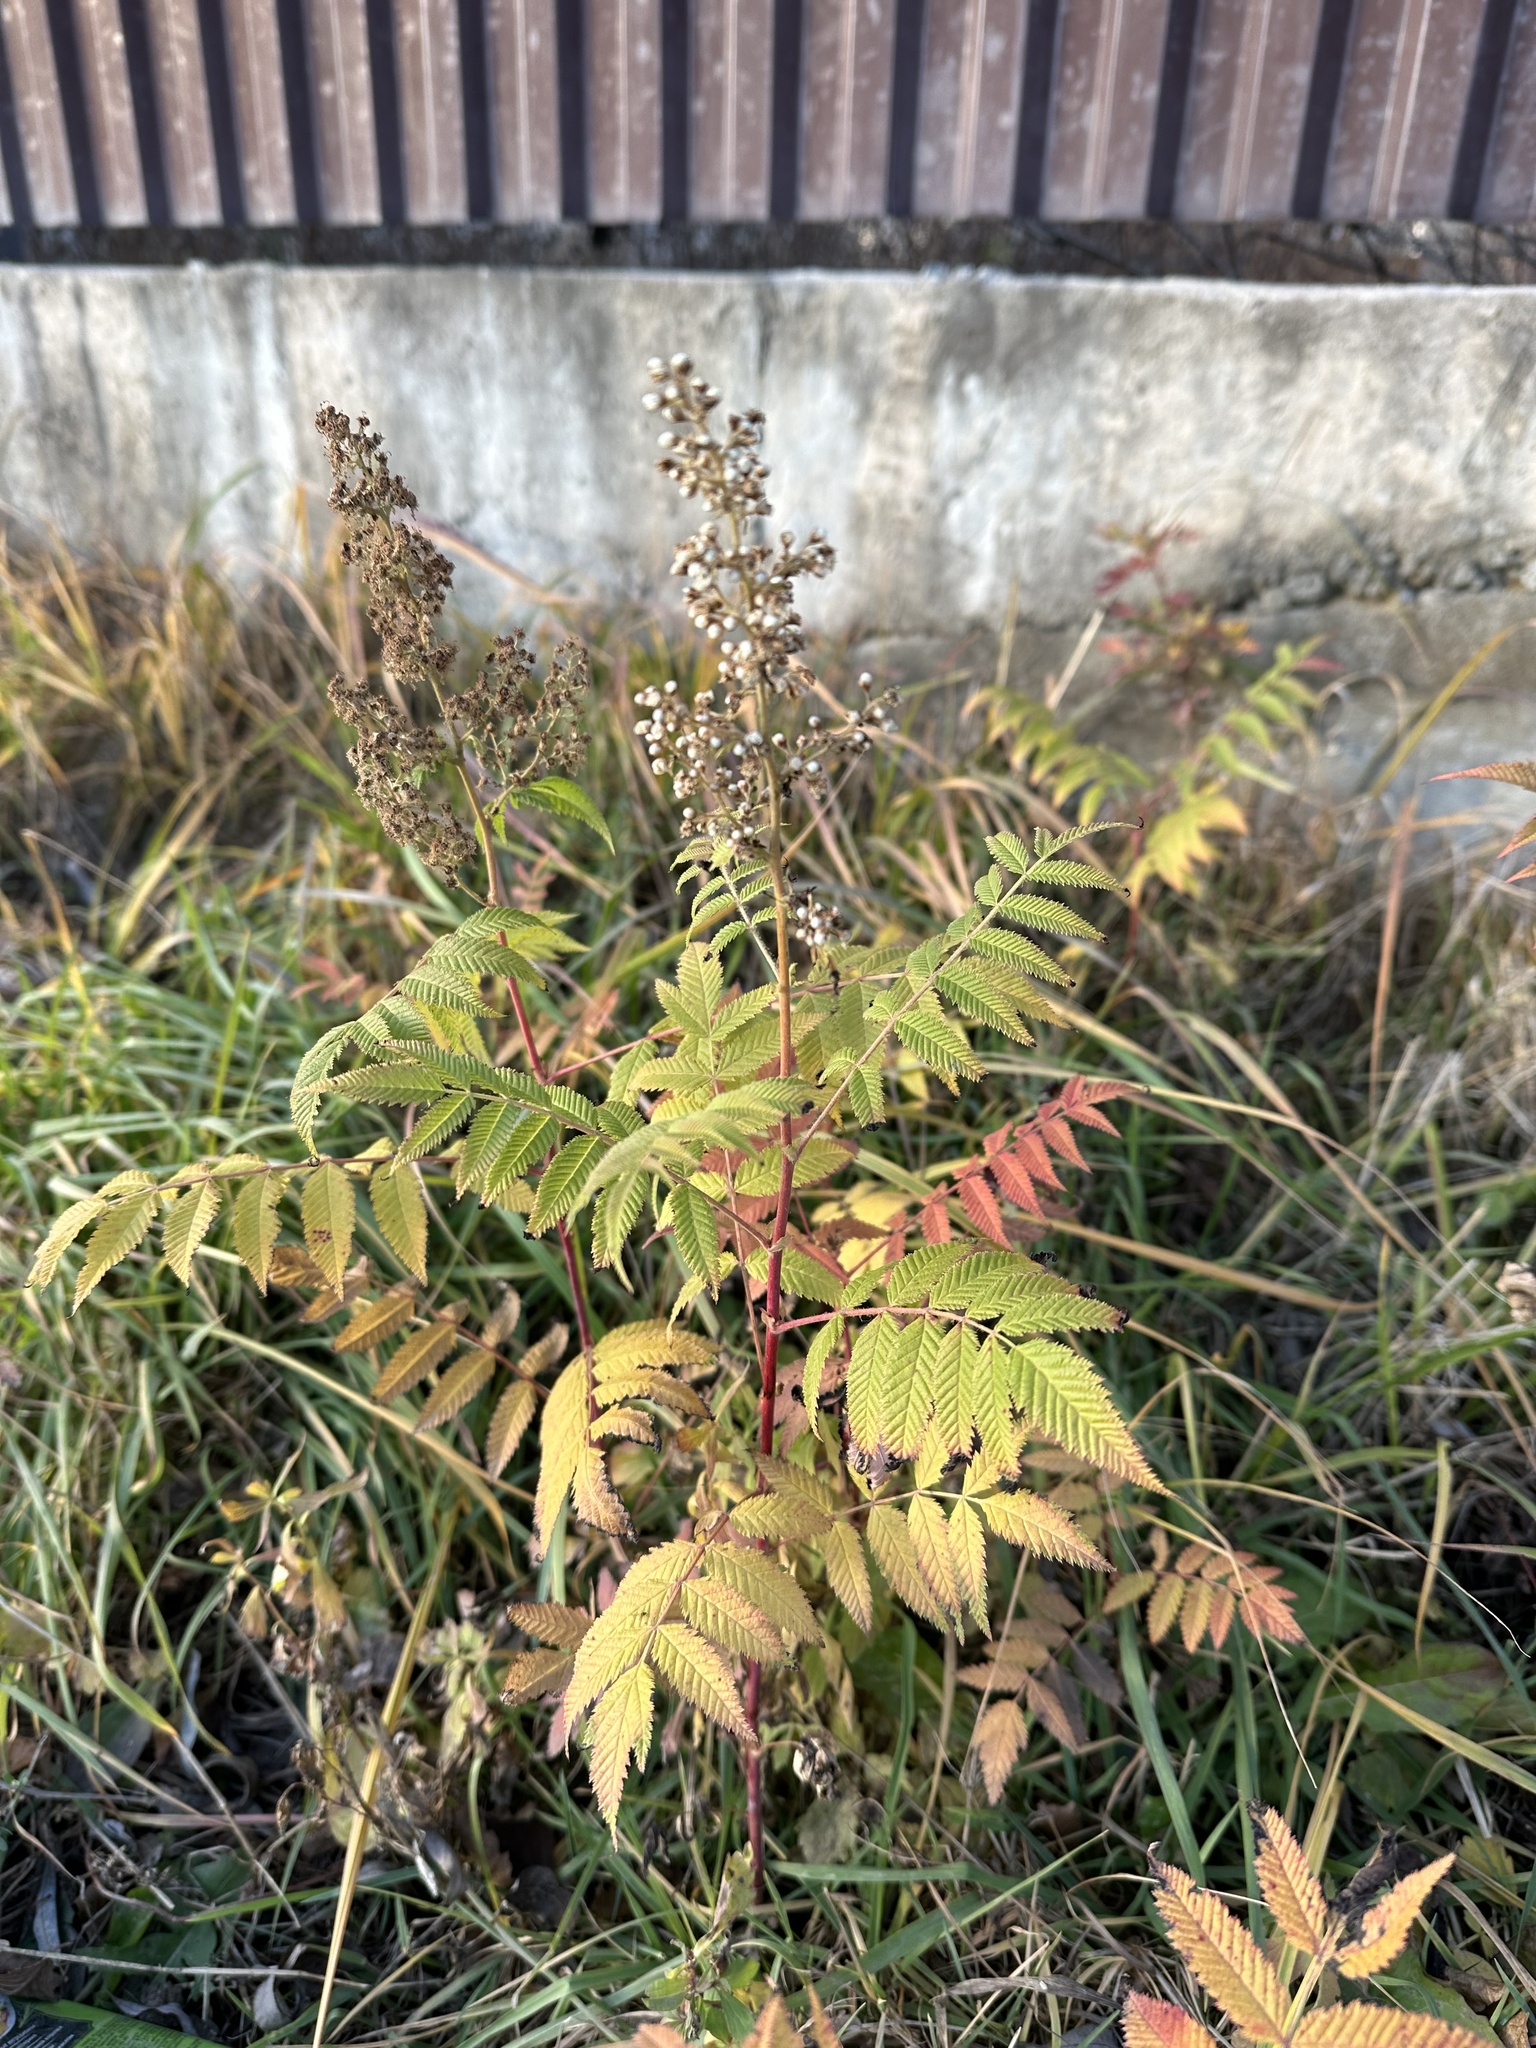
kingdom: Plantae
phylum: Tracheophyta
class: Magnoliopsida
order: Rosales
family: Rosaceae
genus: Sorbaria
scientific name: Sorbaria sorbifolia
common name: False spiraea
